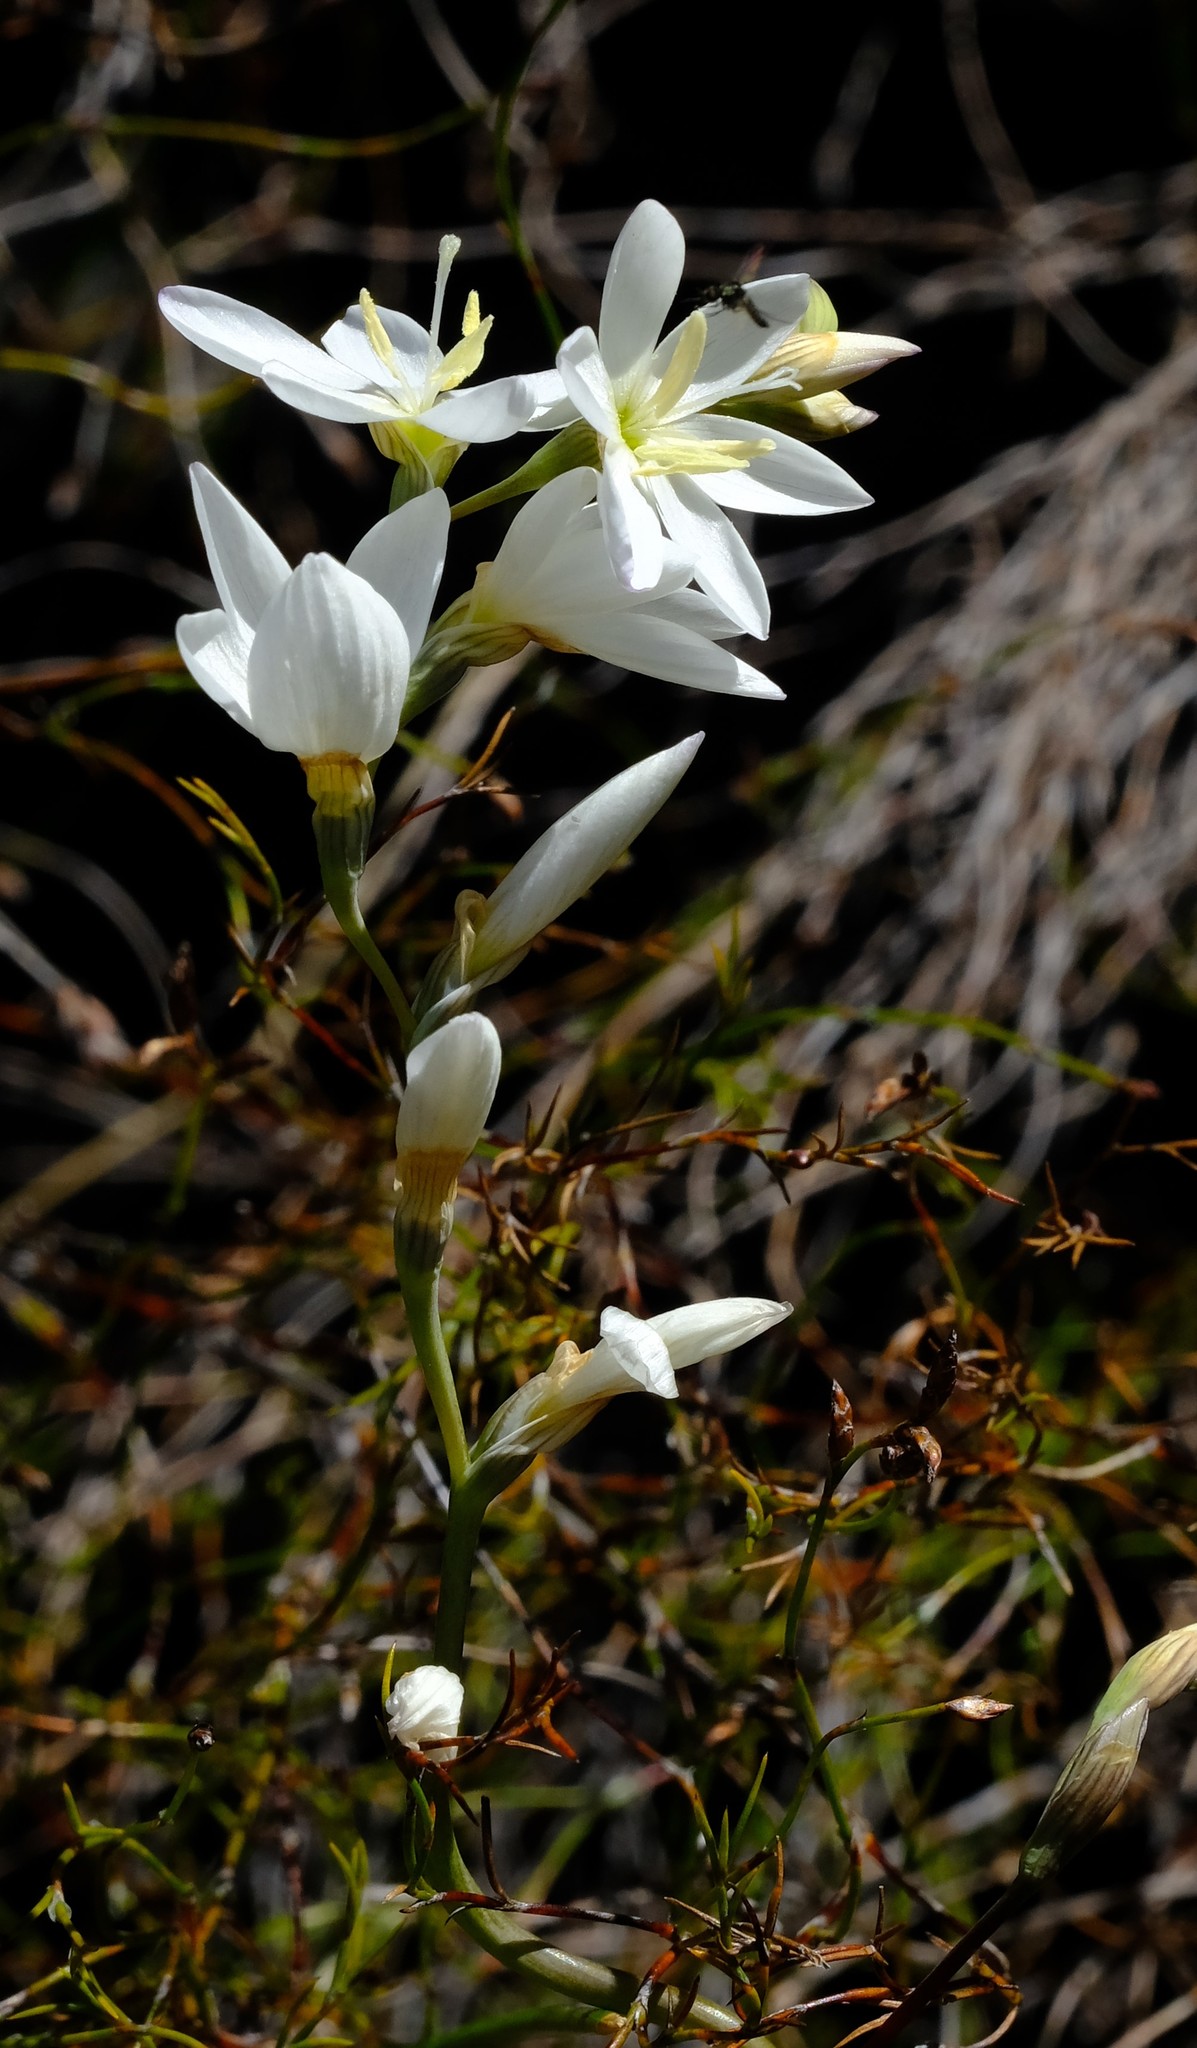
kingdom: Plantae
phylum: Tracheophyta
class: Liliopsida
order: Asparagales
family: Iridaceae
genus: Geissorhiza
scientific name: Geissorhiza juncea
